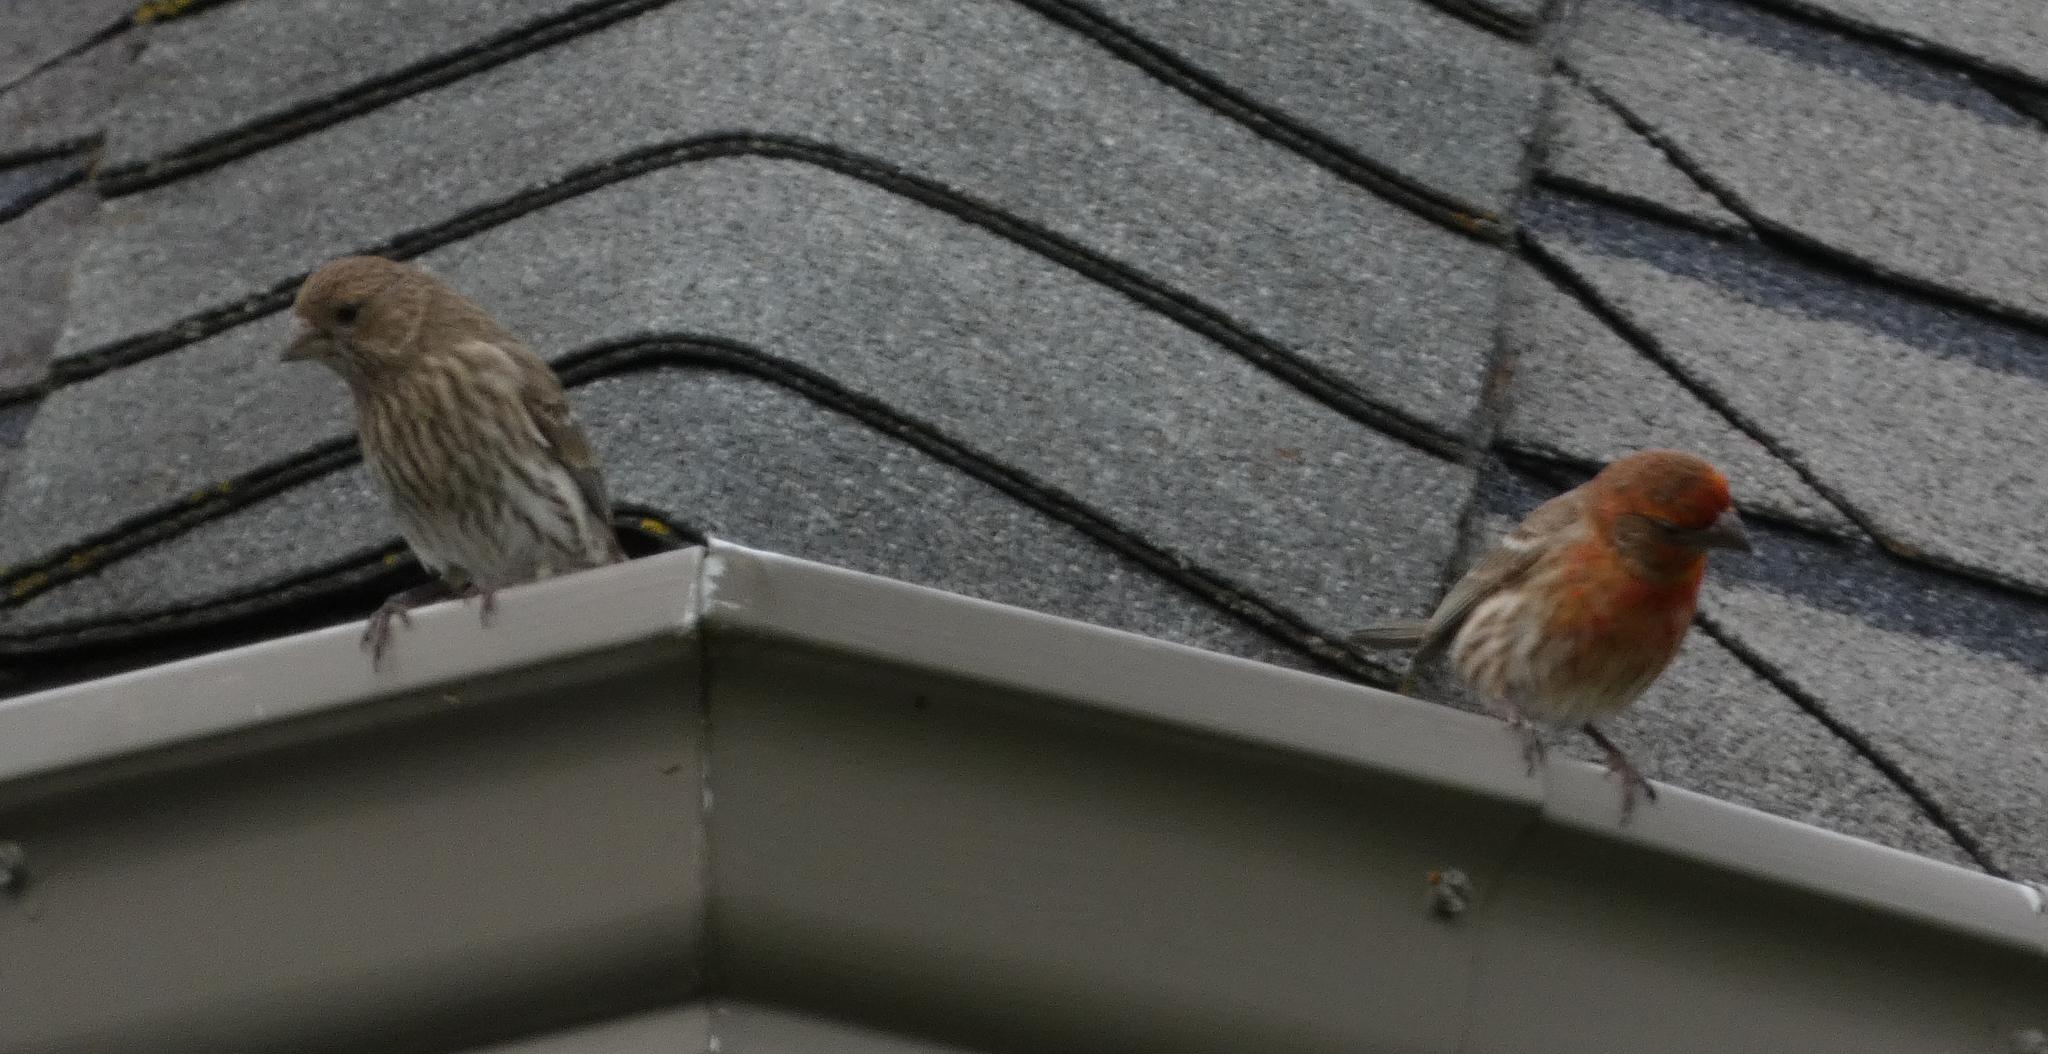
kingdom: Animalia
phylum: Chordata
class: Aves
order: Passeriformes
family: Fringillidae
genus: Haemorhous
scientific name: Haemorhous mexicanus
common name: House finch
